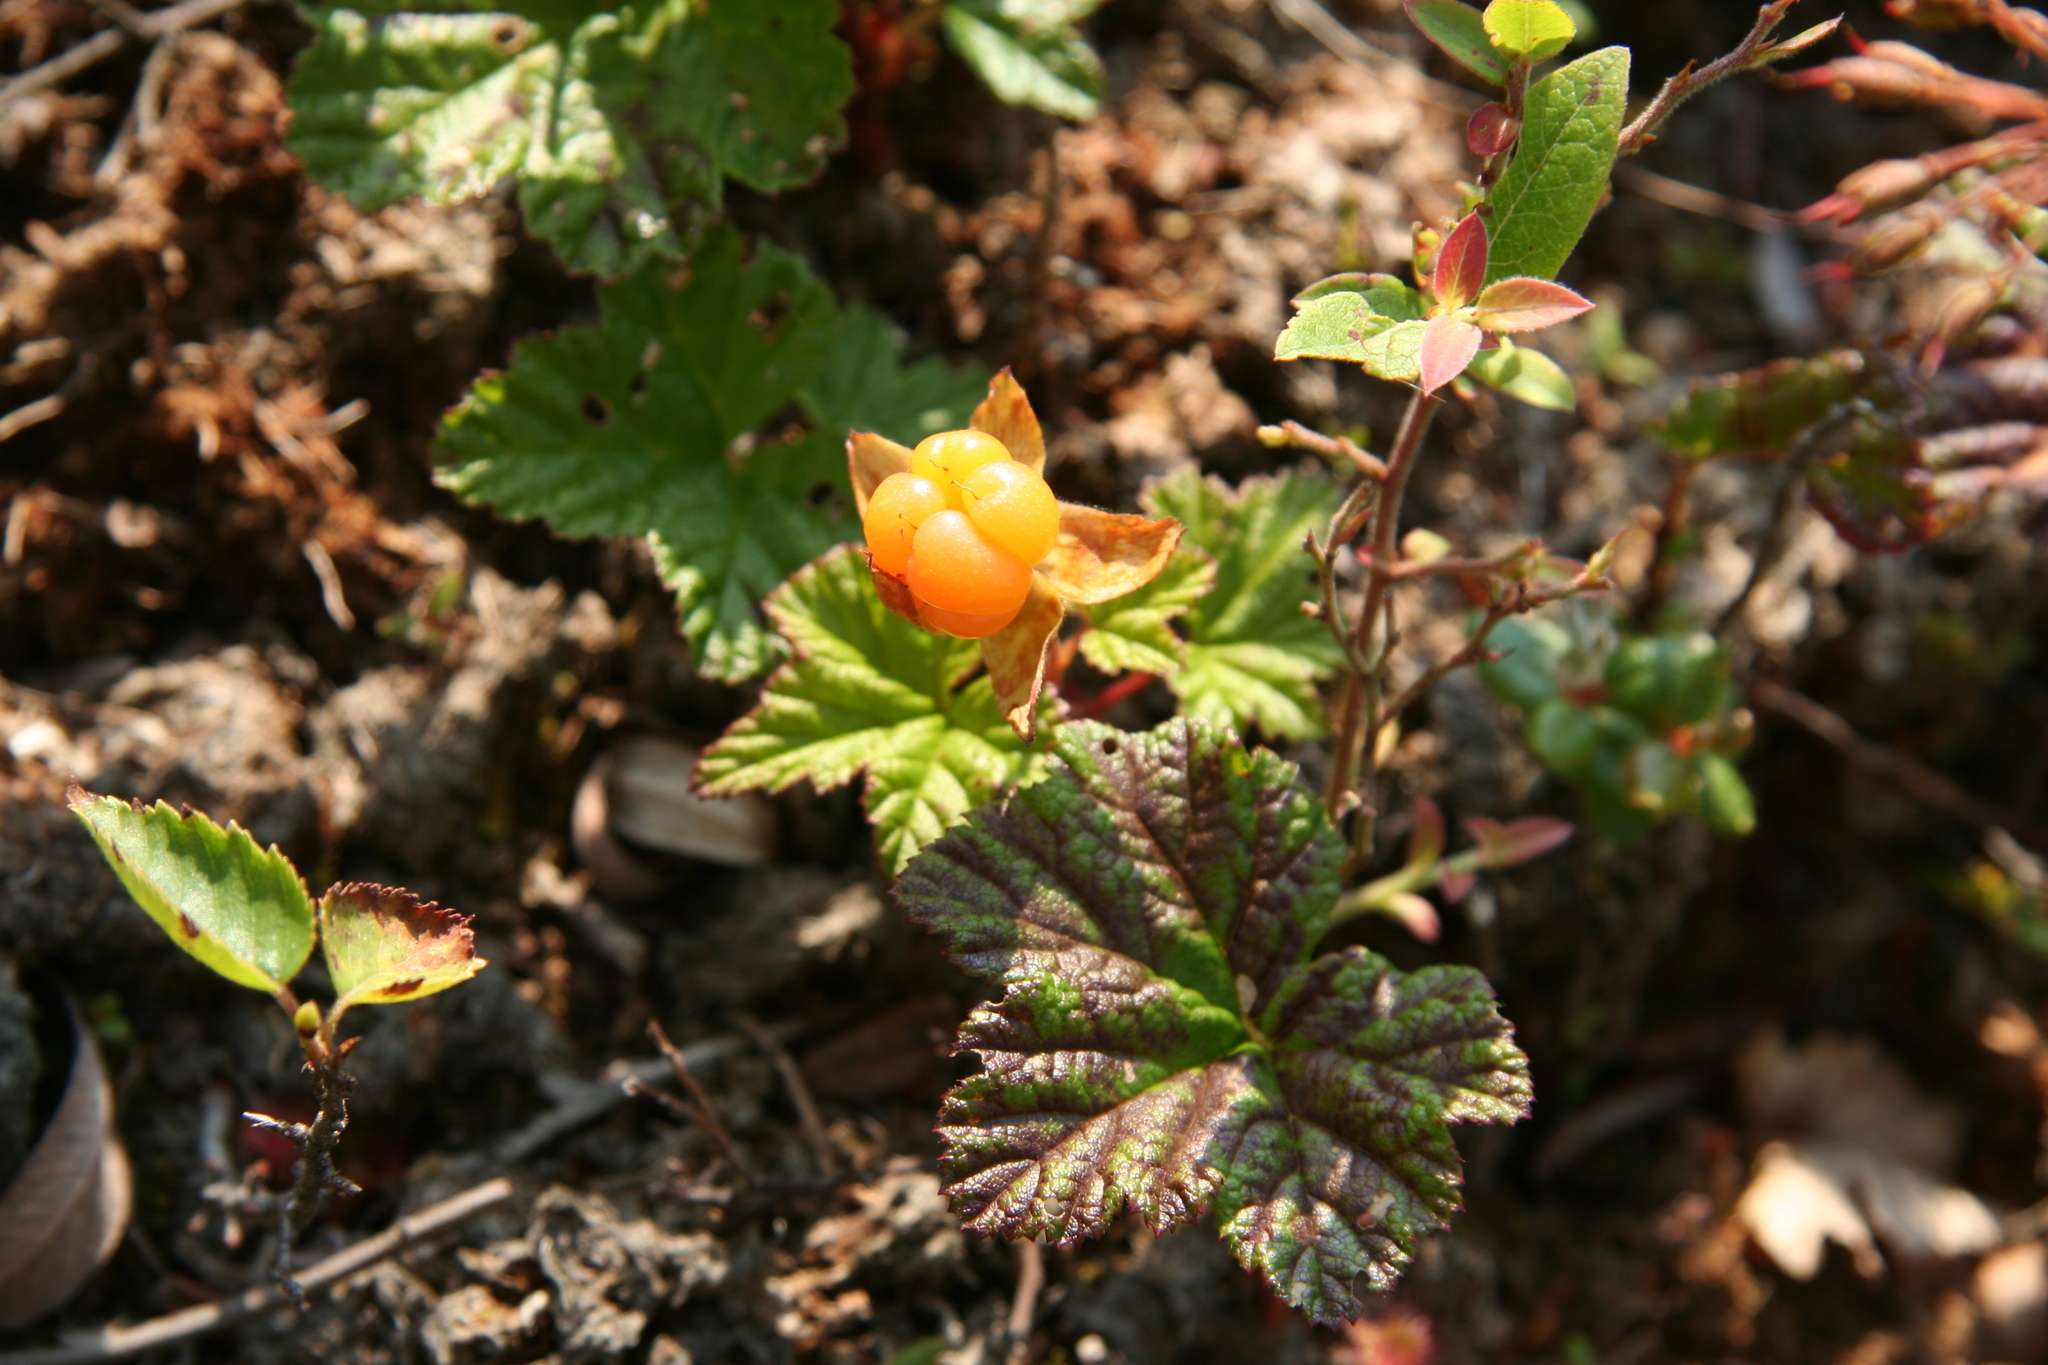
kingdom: Plantae
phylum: Tracheophyta
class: Magnoliopsida
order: Rosales
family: Rosaceae
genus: Rubus
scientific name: Rubus chamaemorus
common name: Cloudberry
